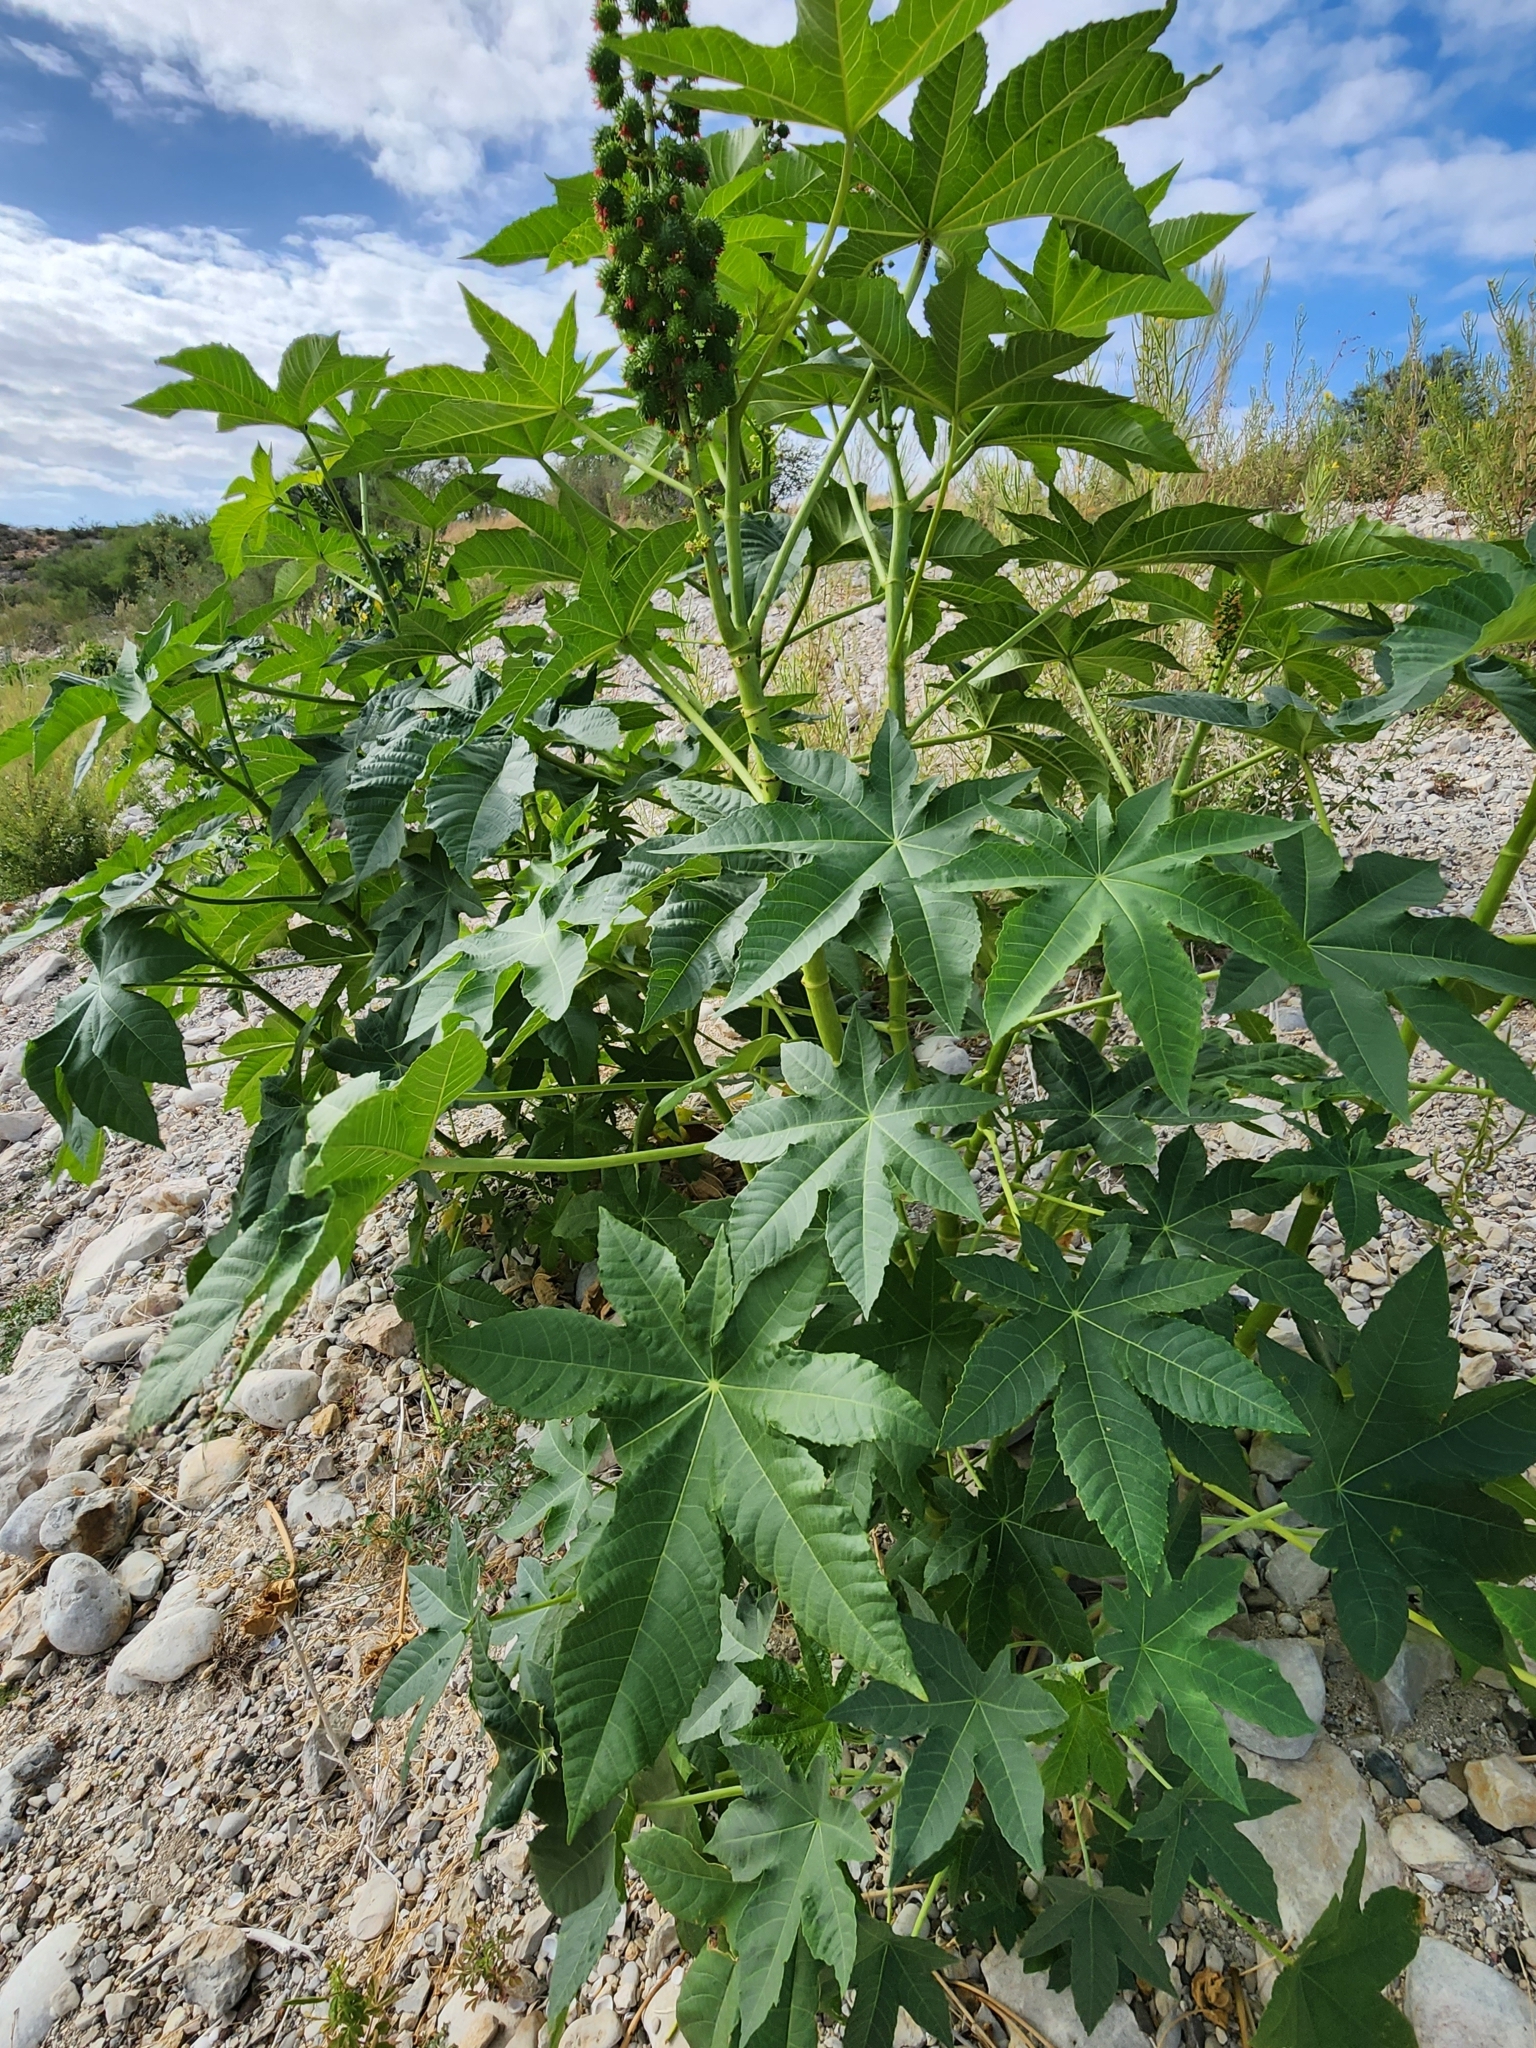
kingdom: Plantae
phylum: Tracheophyta
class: Magnoliopsida
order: Malpighiales
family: Euphorbiaceae
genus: Ricinus
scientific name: Ricinus communis
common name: Castor-oil-plant
